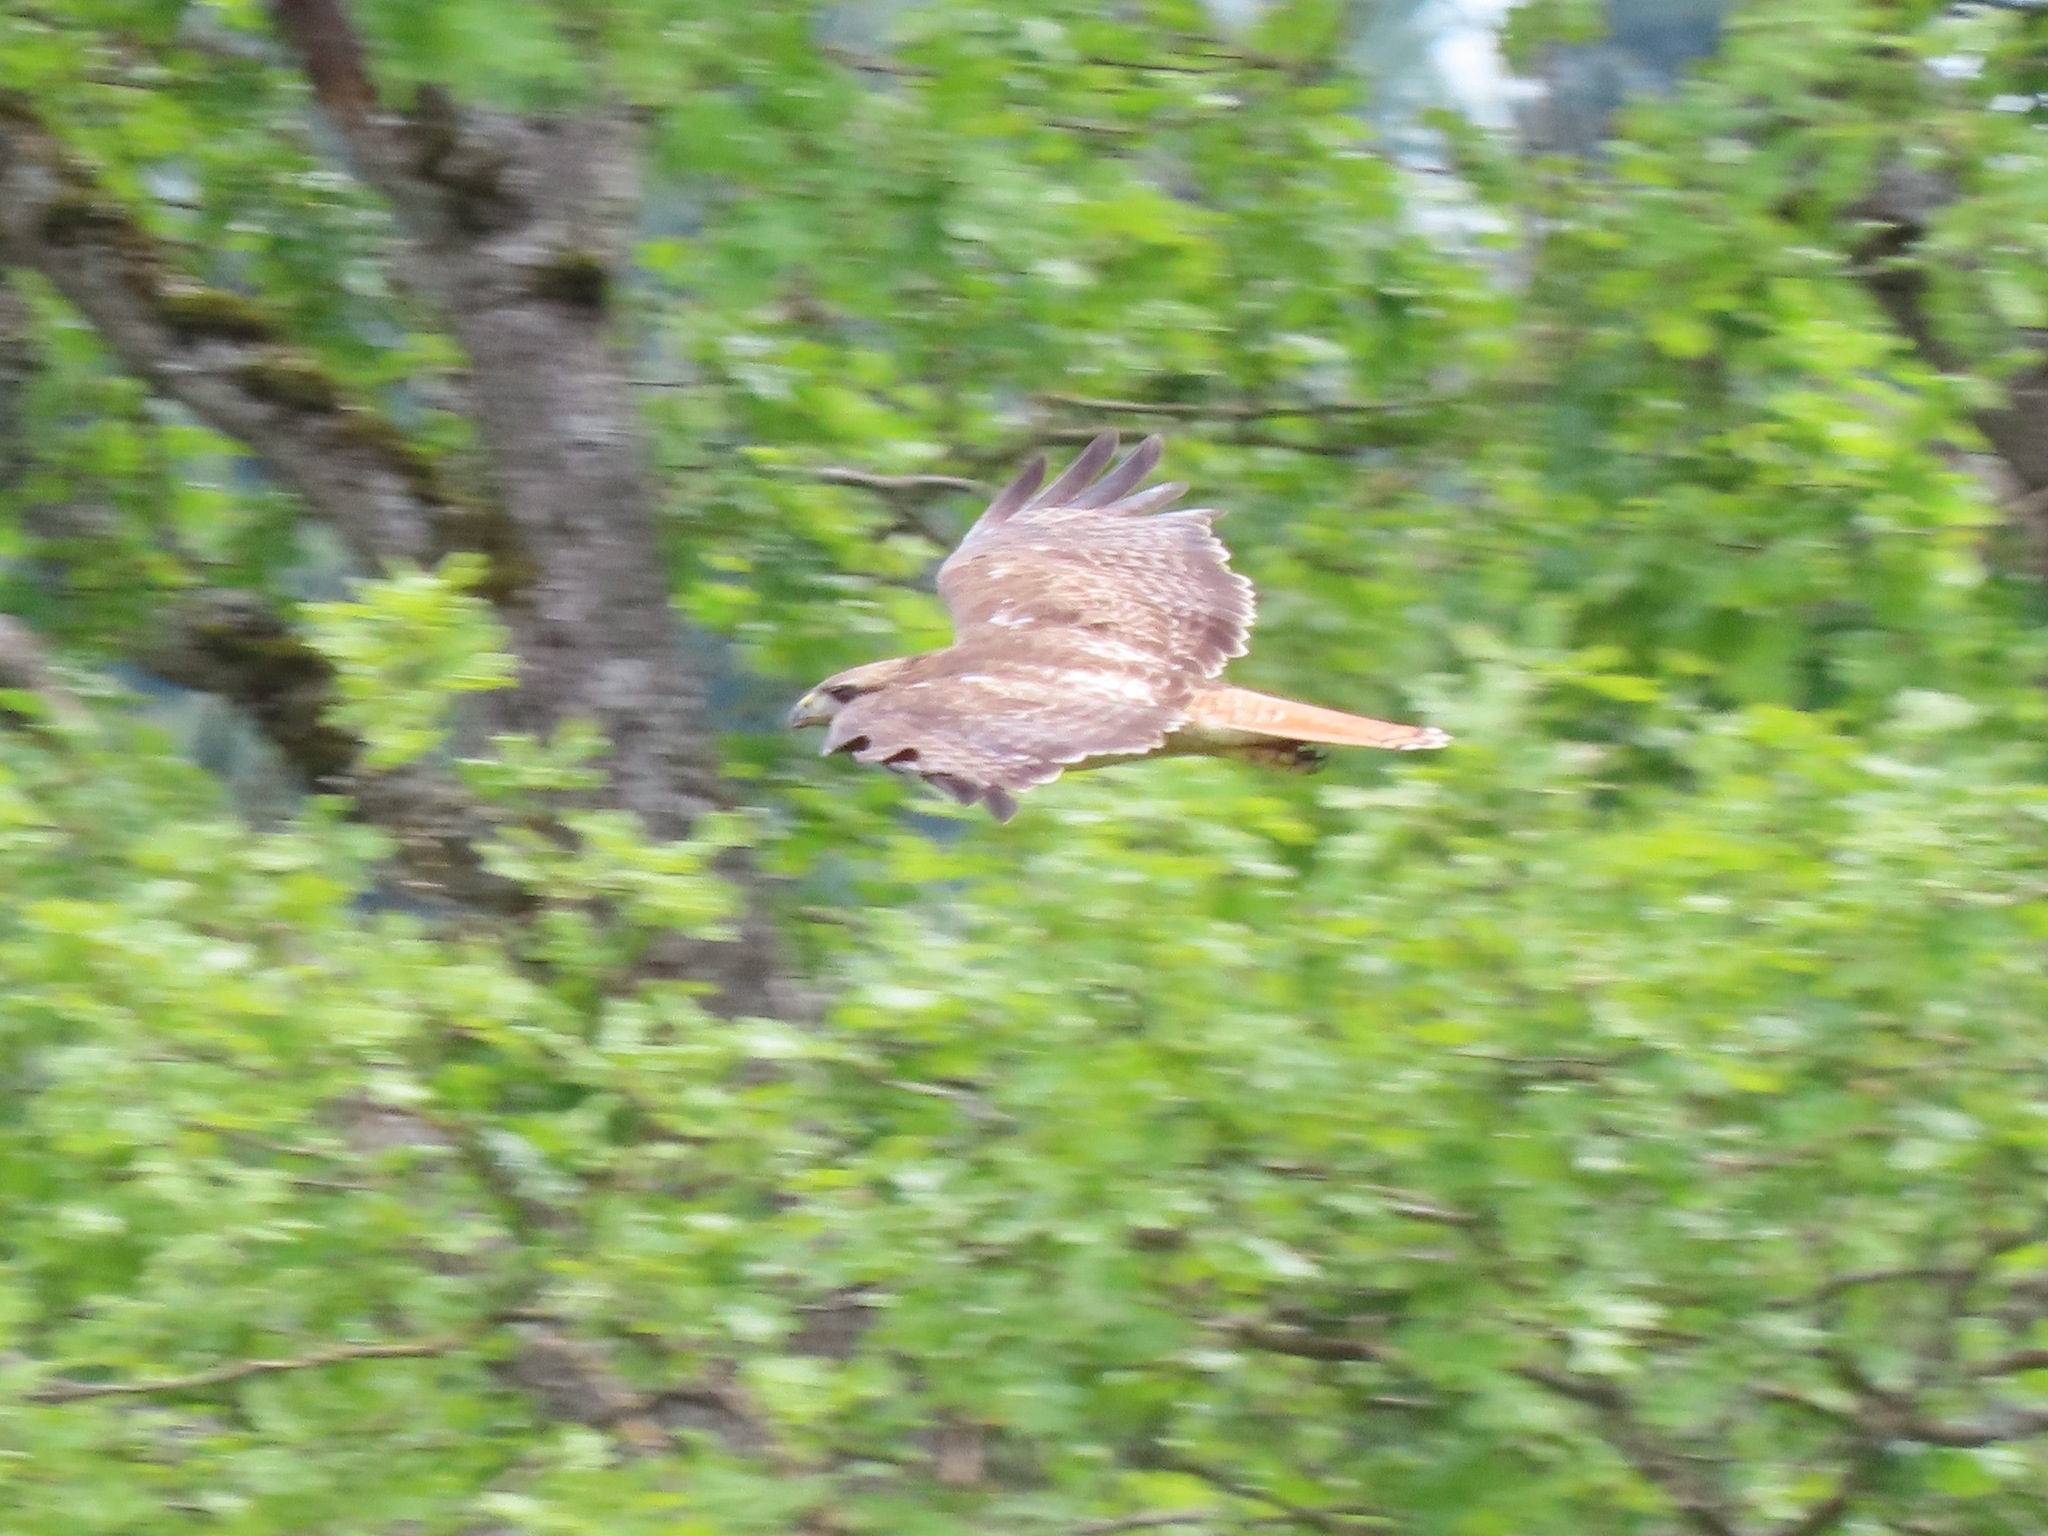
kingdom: Animalia
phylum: Chordata
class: Aves
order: Accipitriformes
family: Accipitridae
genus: Buteo
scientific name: Buteo jamaicensis
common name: Red-tailed hawk
